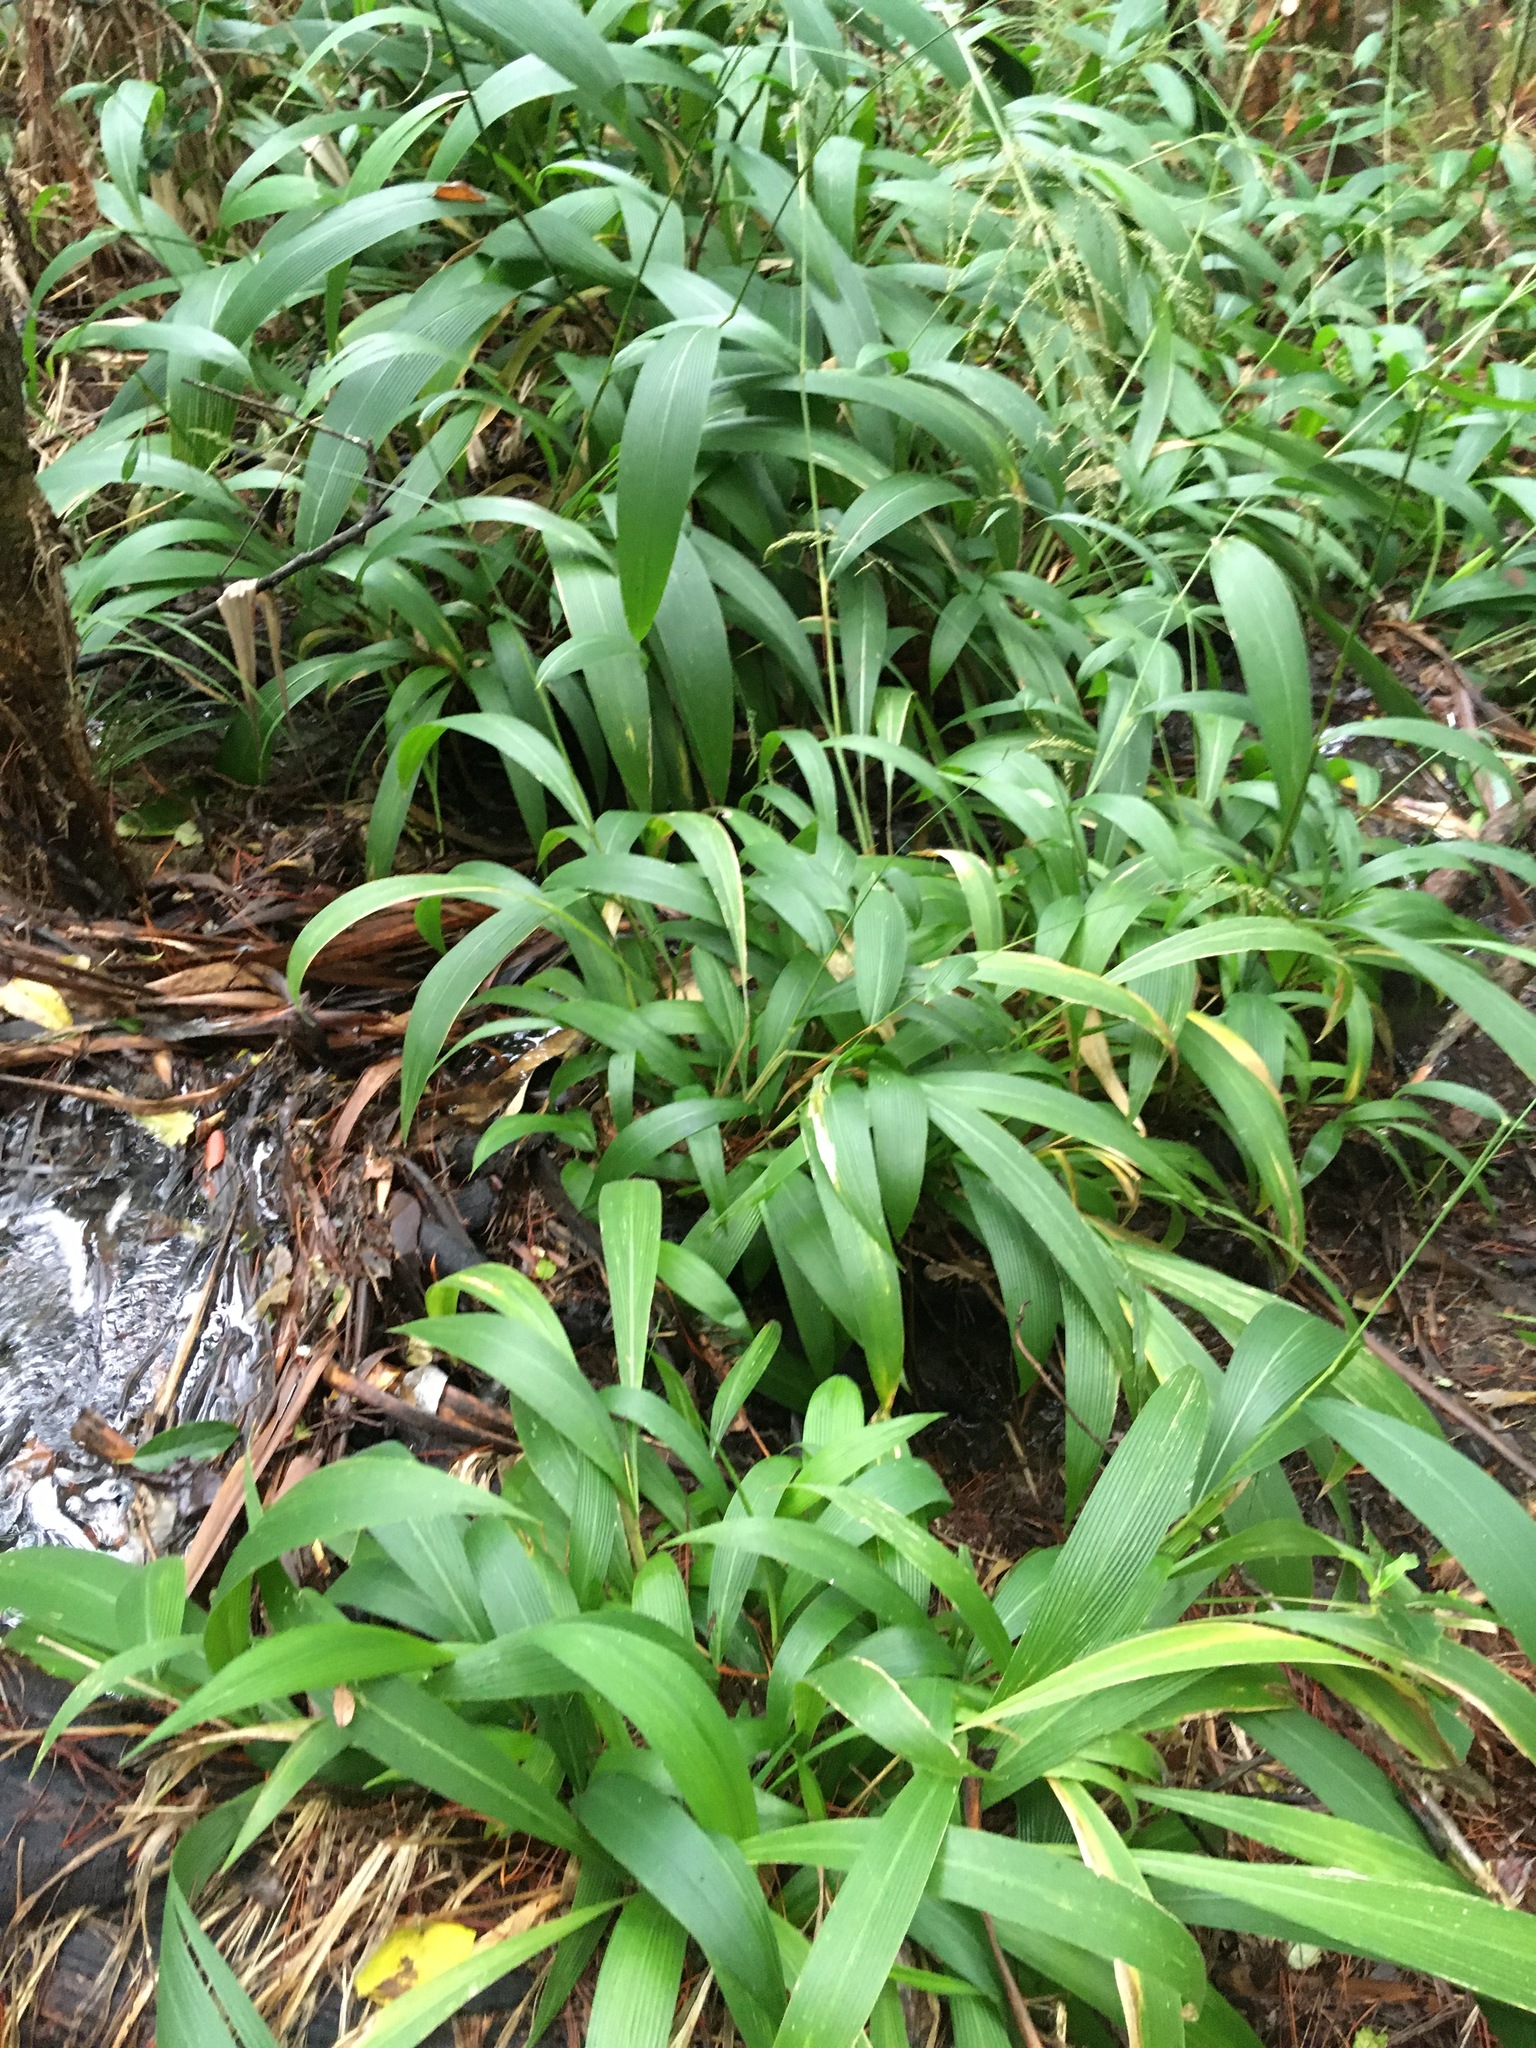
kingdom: Plantae
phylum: Tracheophyta
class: Liliopsida
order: Poales
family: Poaceae
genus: Setaria
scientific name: Setaria palmifolia
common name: Broadleaved bristlegrass
